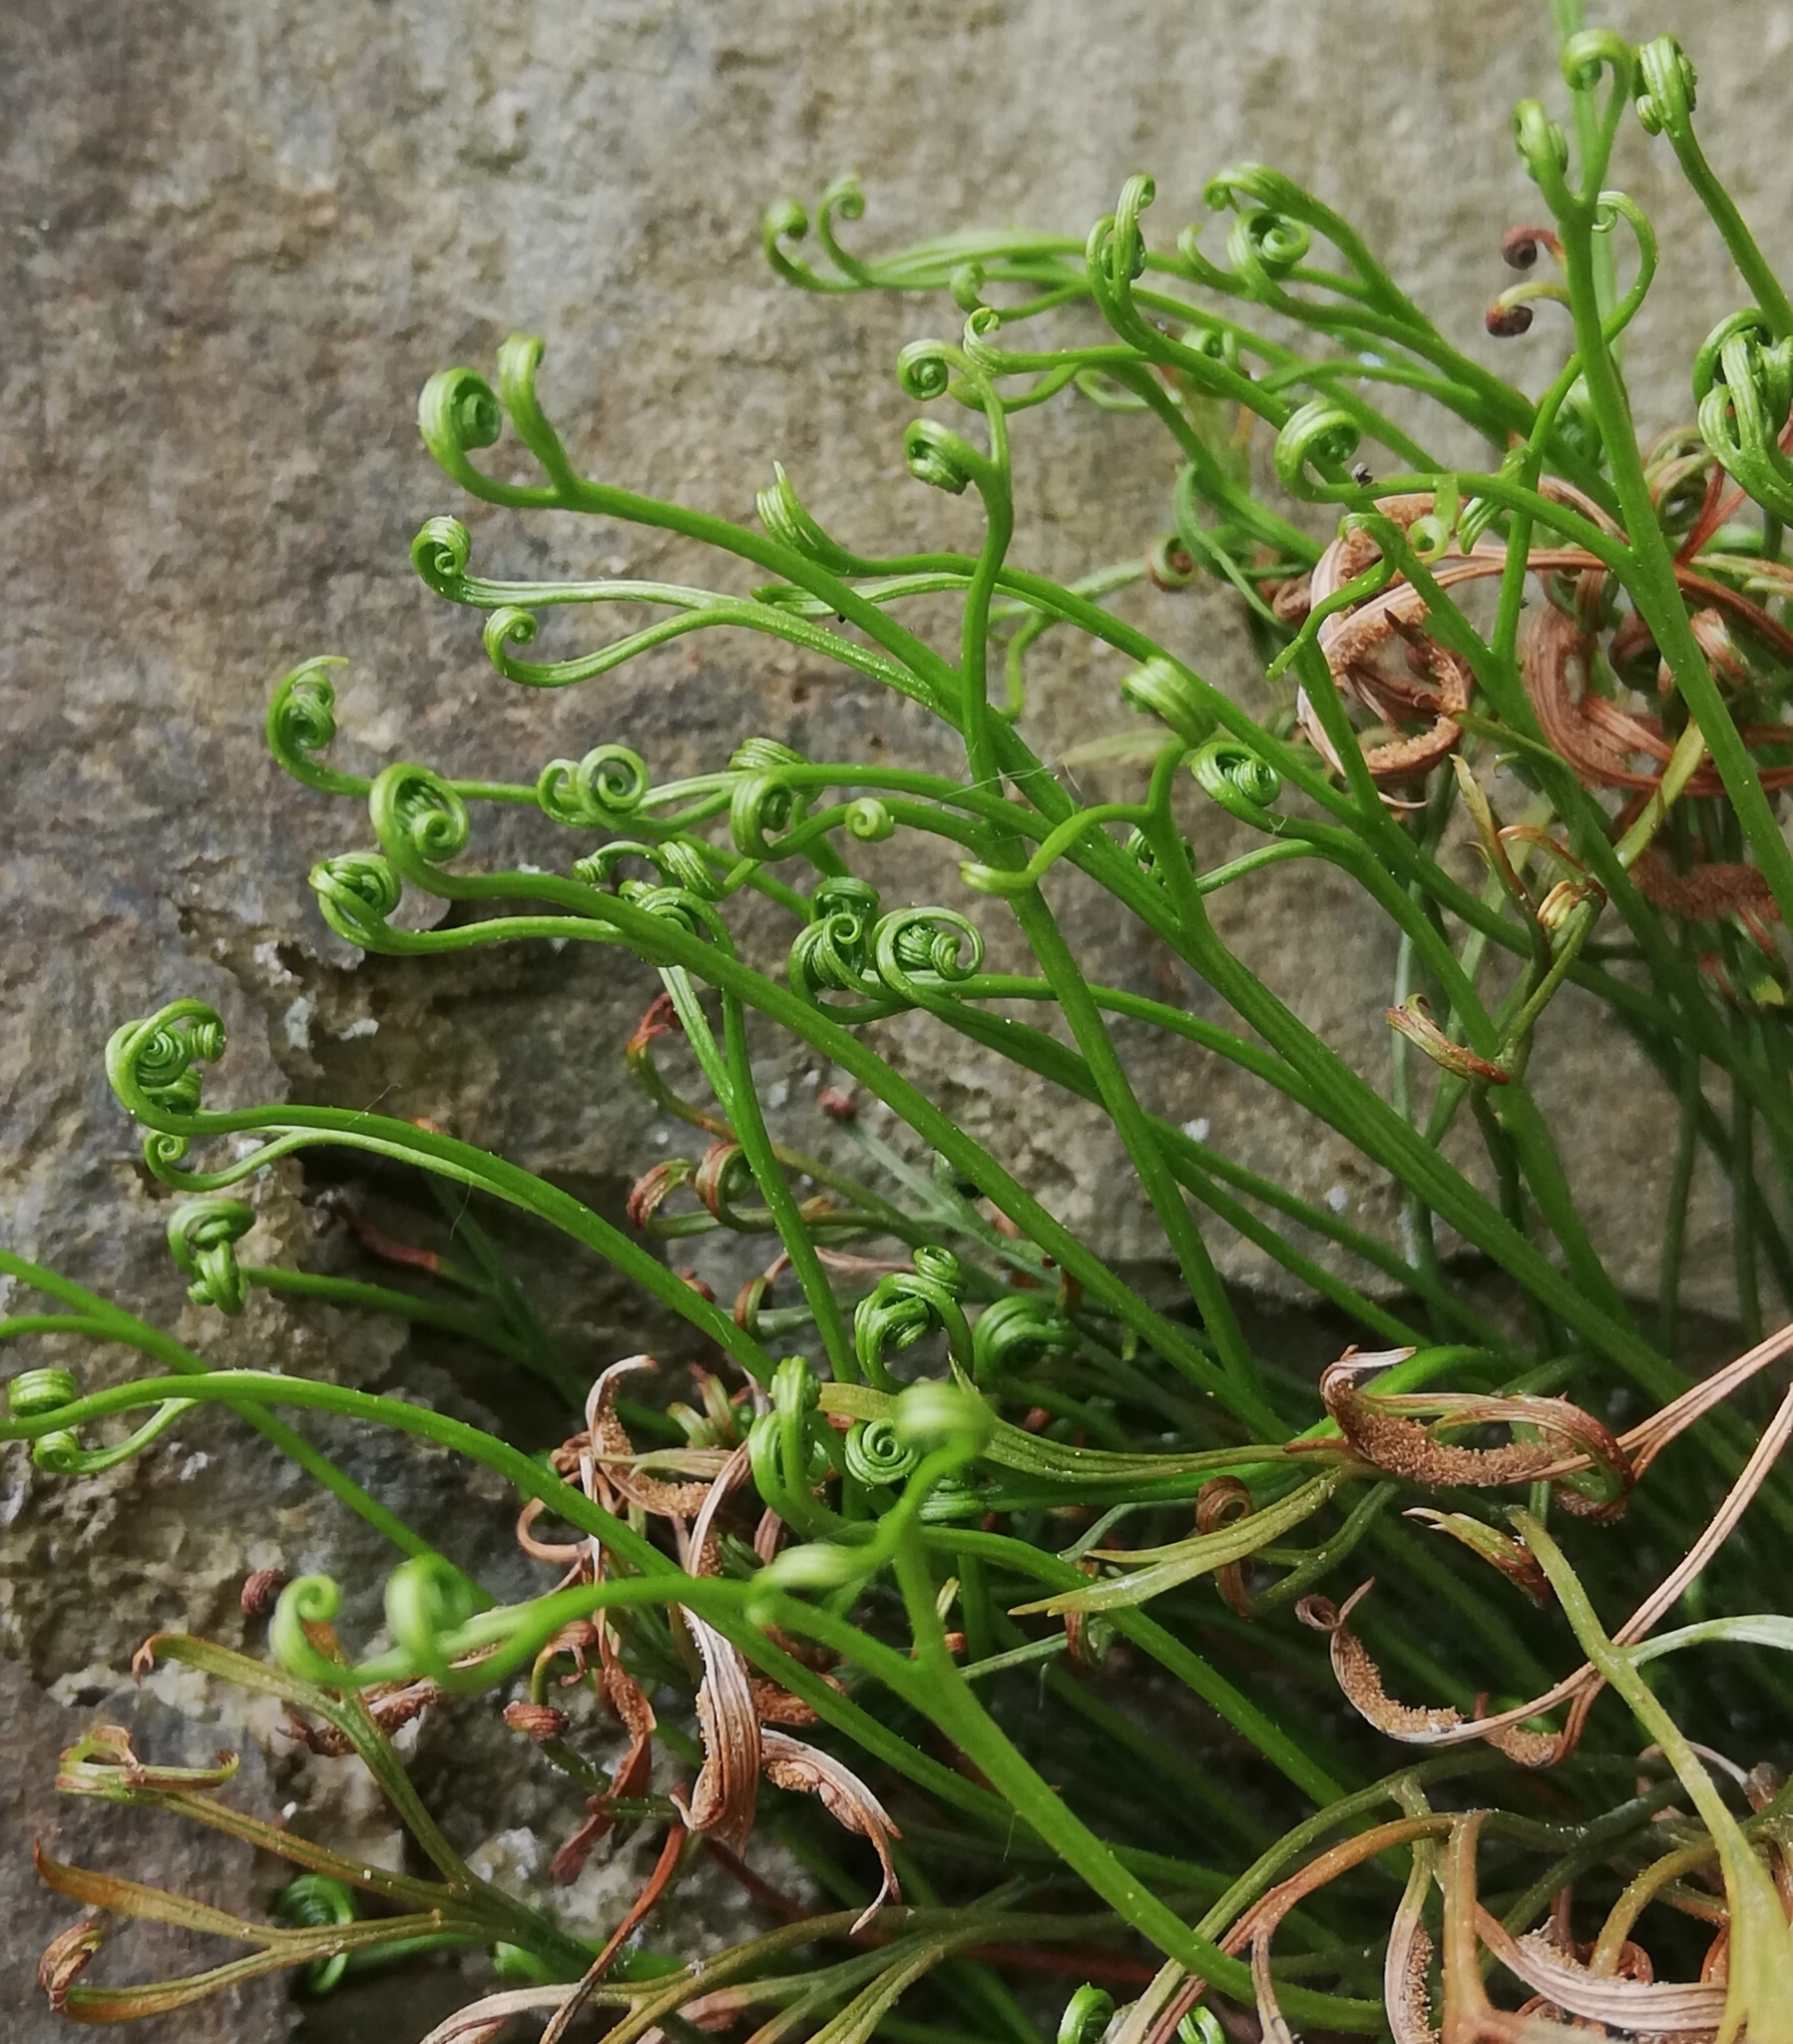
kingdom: Plantae
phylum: Tracheophyta
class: Polypodiopsida
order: Polypodiales
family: Aspleniaceae
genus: Asplenium
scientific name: Asplenium septentrionale
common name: Forked spleenwort
